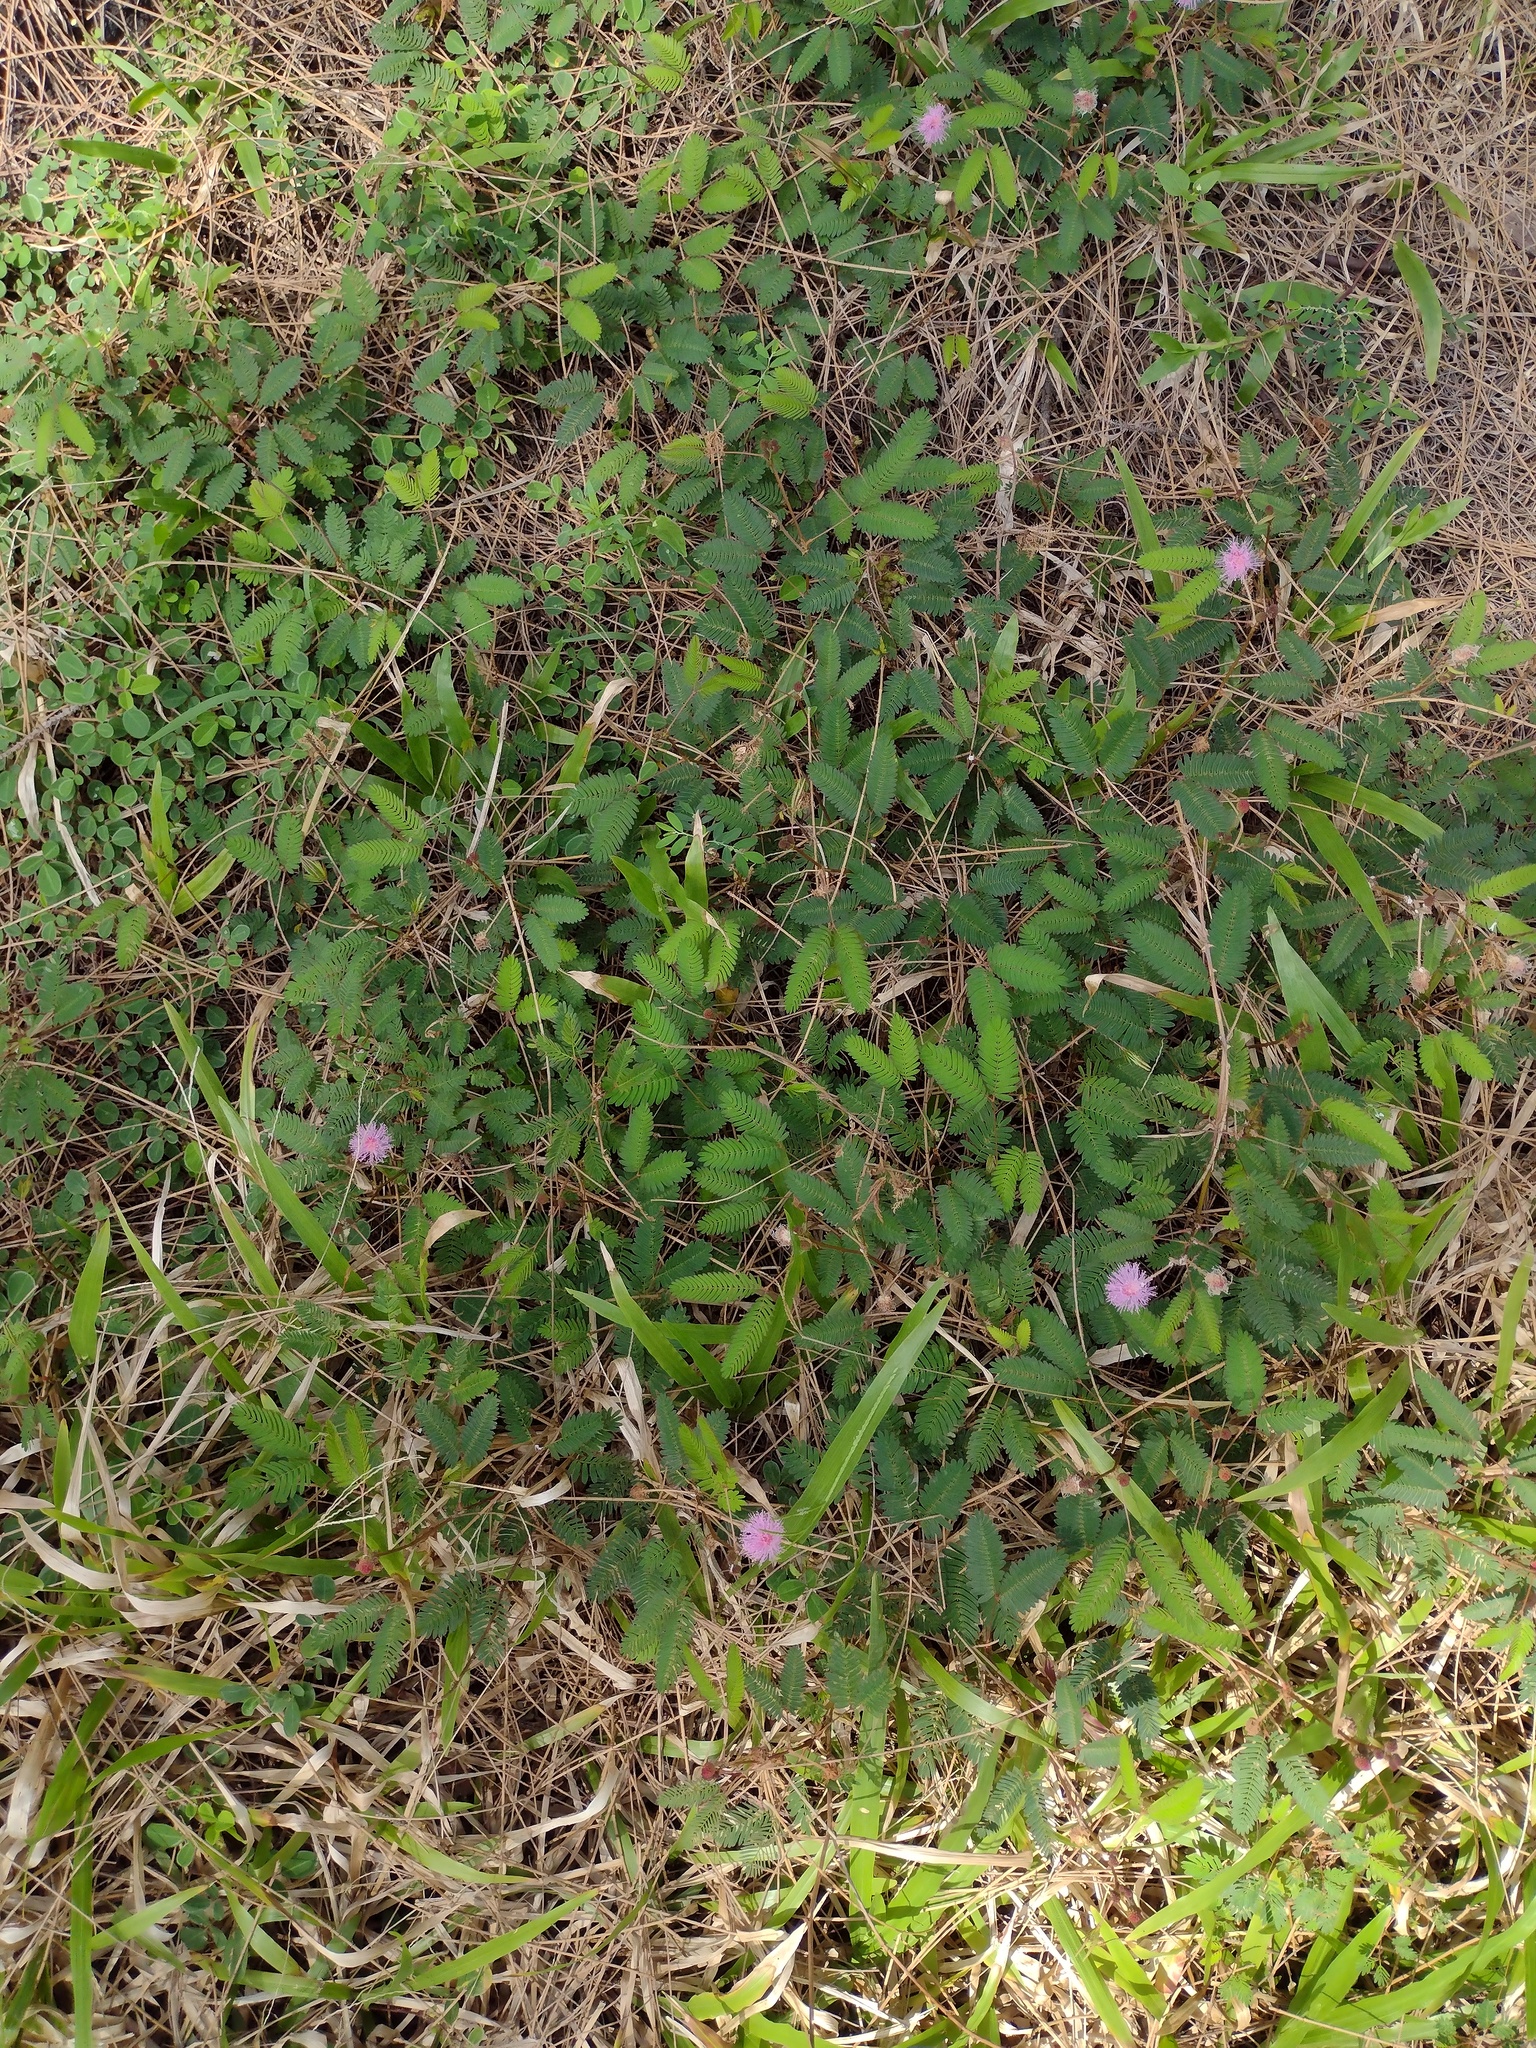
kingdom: Plantae
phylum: Tracheophyta
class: Magnoliopsida
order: Fabales
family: Fabaceae
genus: Mimosa
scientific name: Mimosa pudica
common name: Sensitive plant
